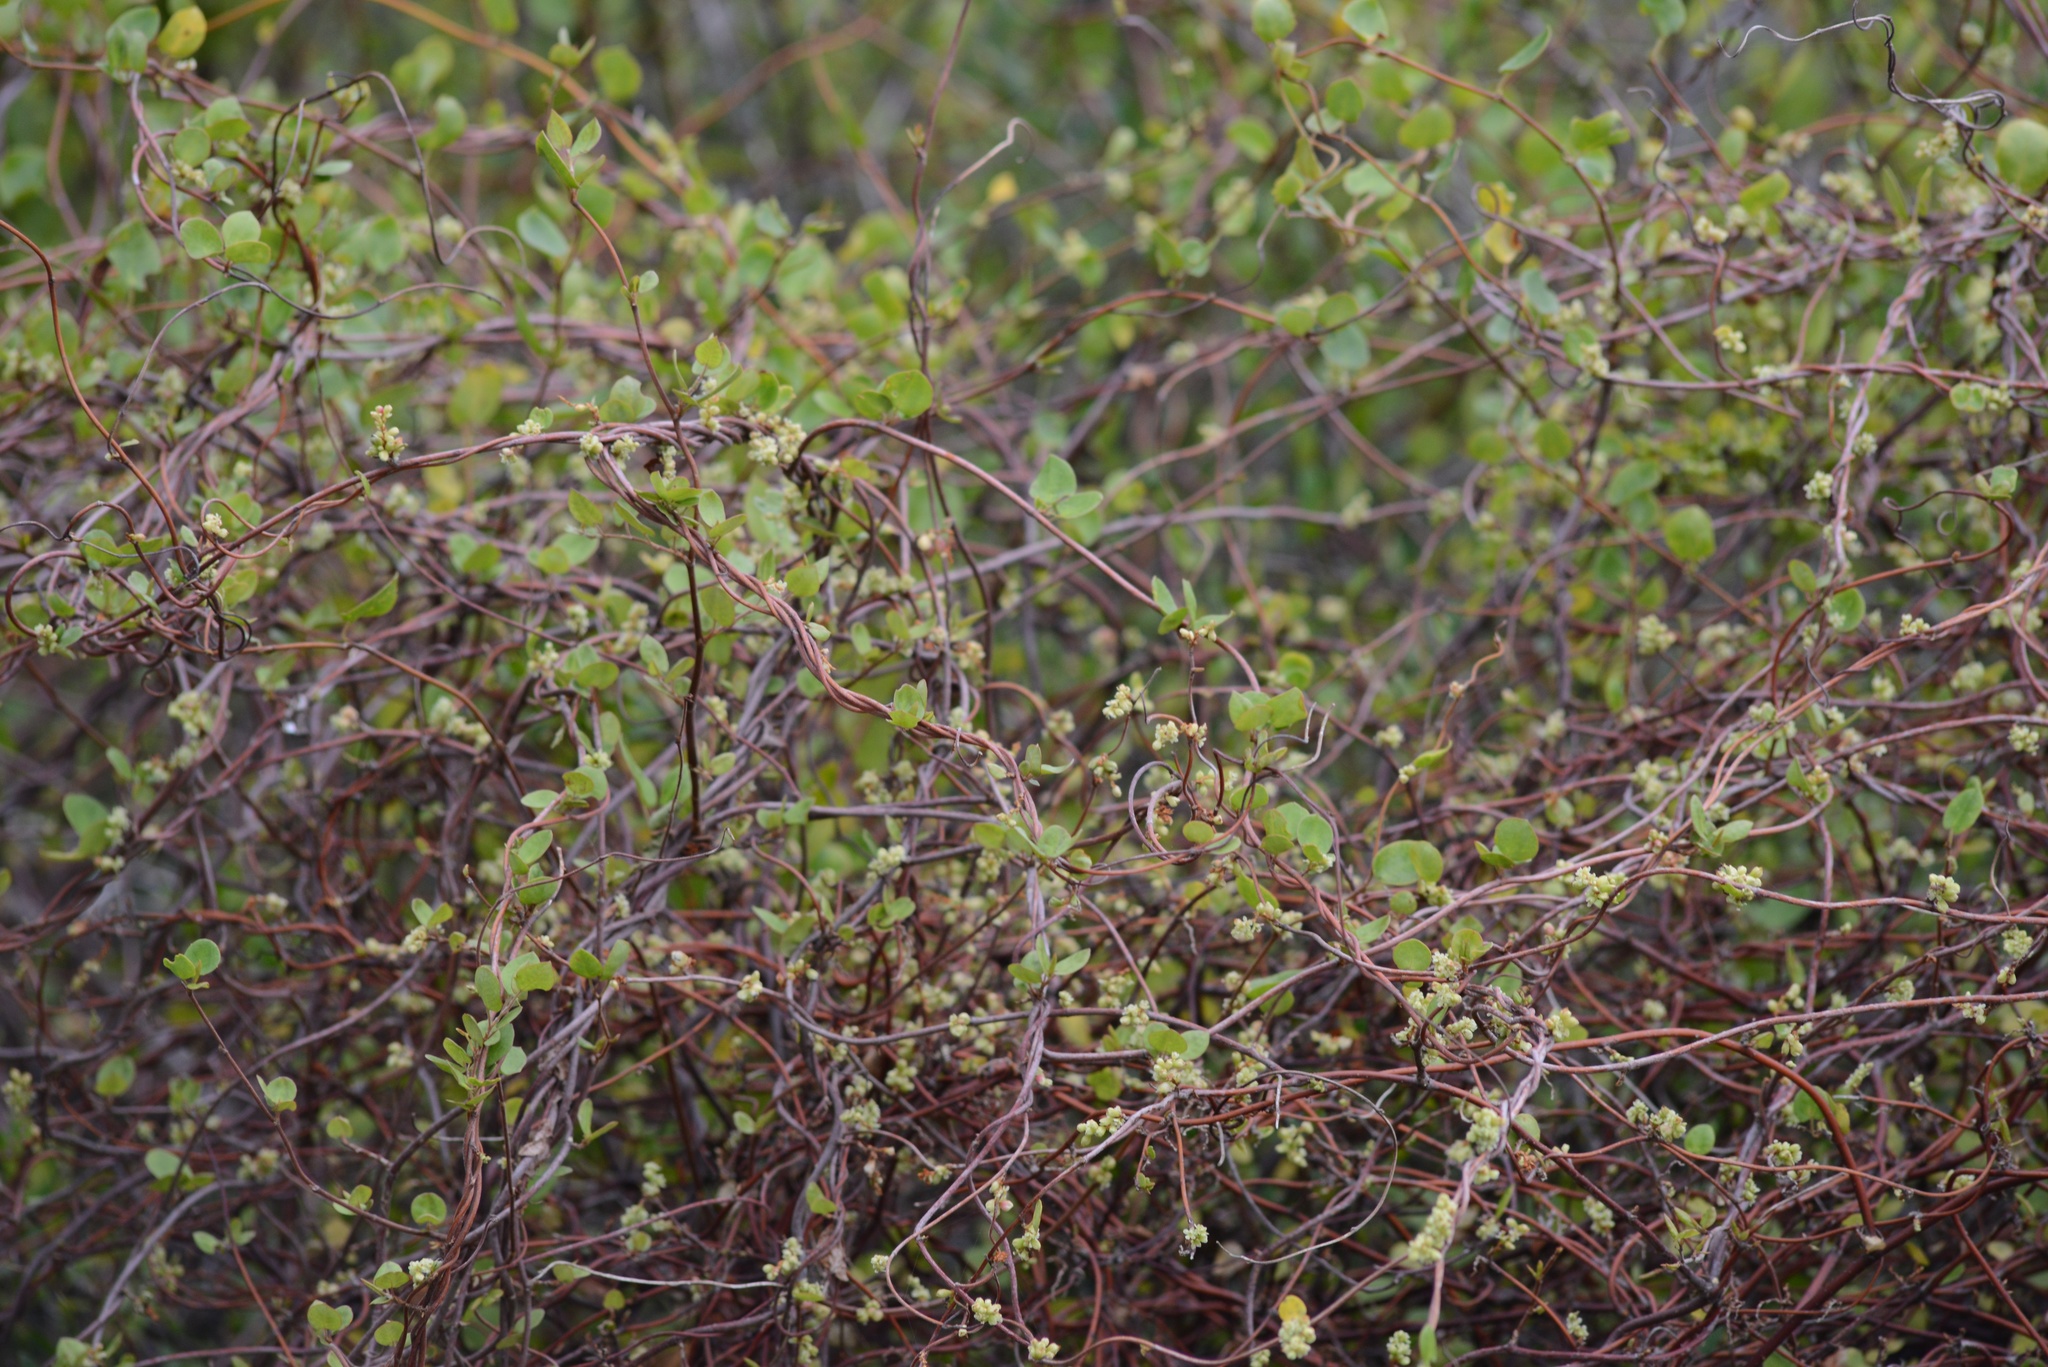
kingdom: Plantae
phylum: Tracheophyta
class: Magnoliopsida
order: Caryophyllales
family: Polygonaceae
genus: Muehlenbeckia
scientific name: Muehlenbeckia complexa
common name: Wireplant
